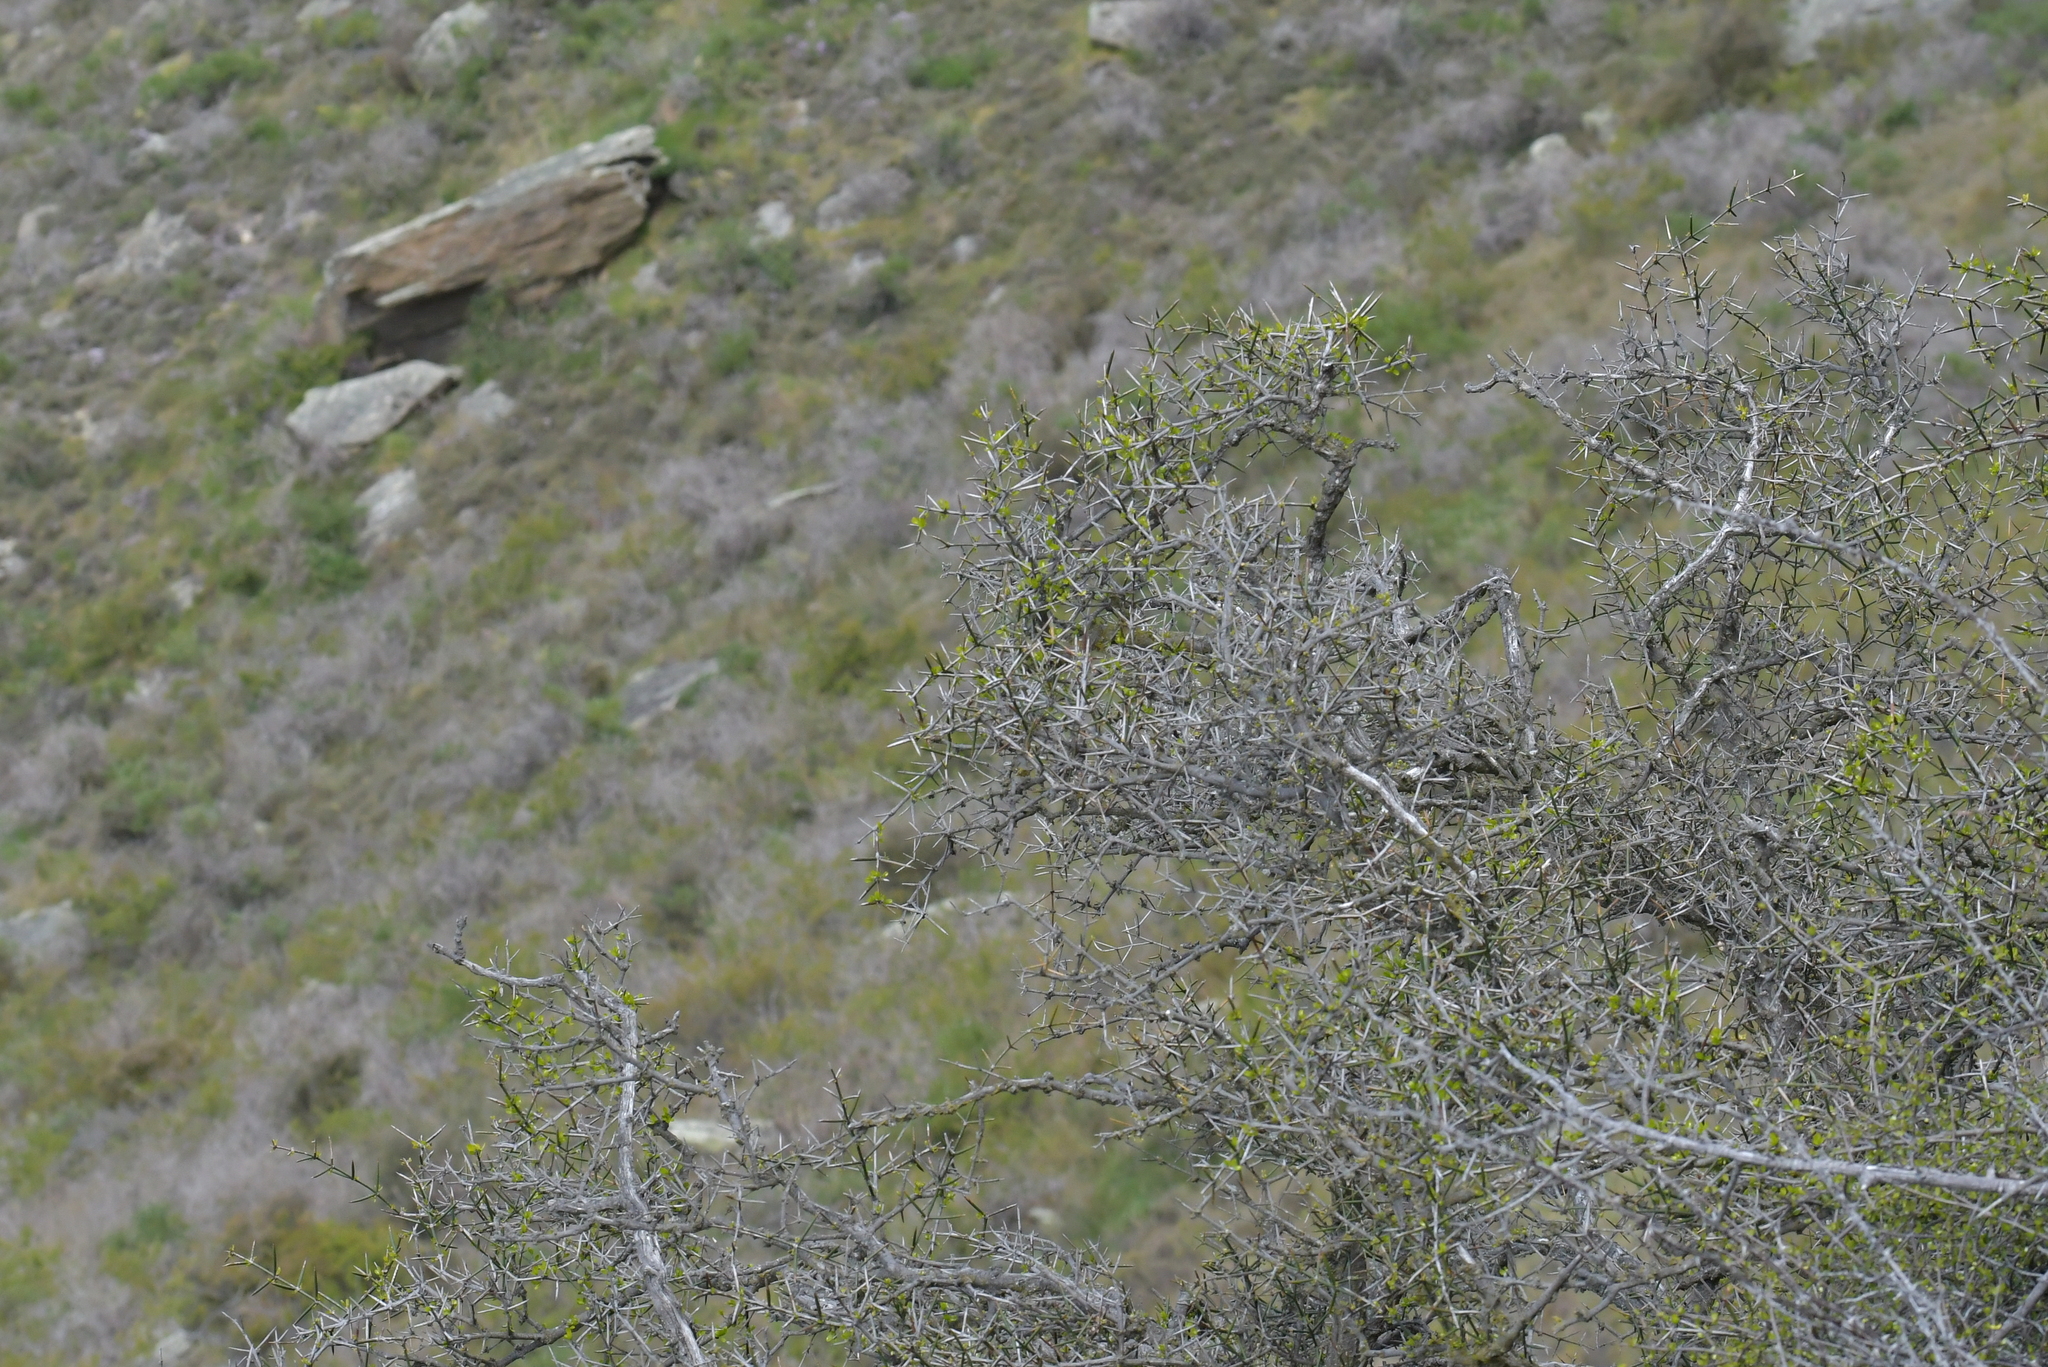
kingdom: Plantae
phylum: Tracheophyta
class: Magnoliopsida
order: Rosales
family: Rhamnaceae
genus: Discaria
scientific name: Discaria toumatou
